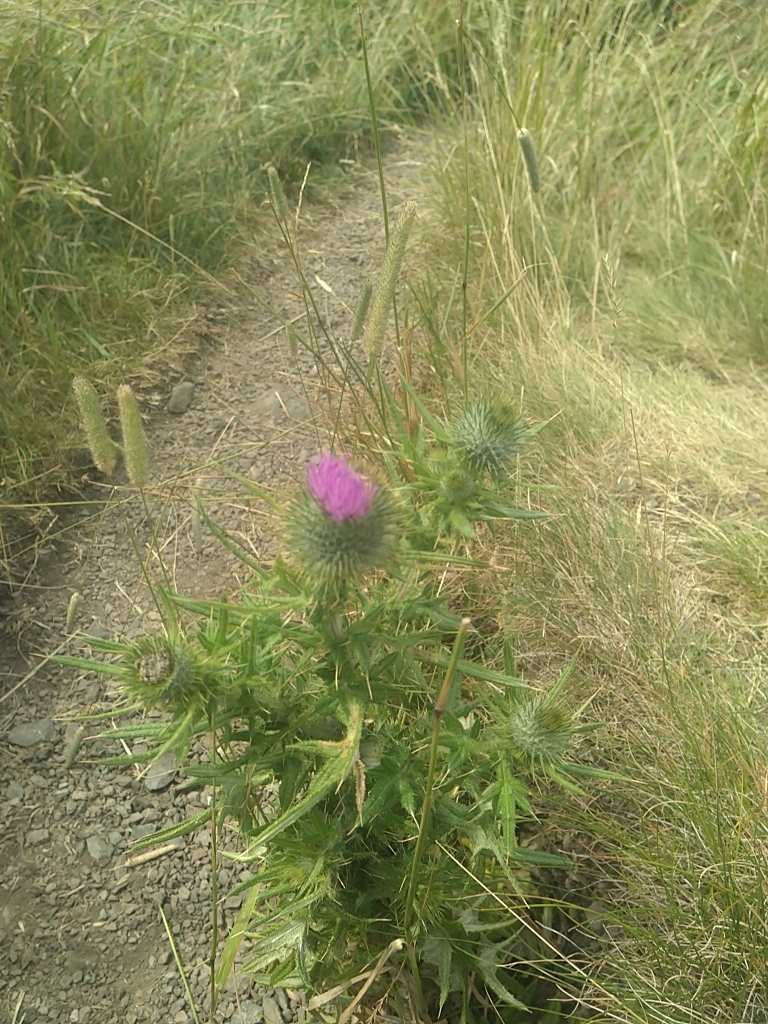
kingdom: Plantae
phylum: Tracheophyta
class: Magnoliopsida
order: Asterales
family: Asteraceae
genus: Cirsium
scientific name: Cirsium vulgare
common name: Bull thistle
